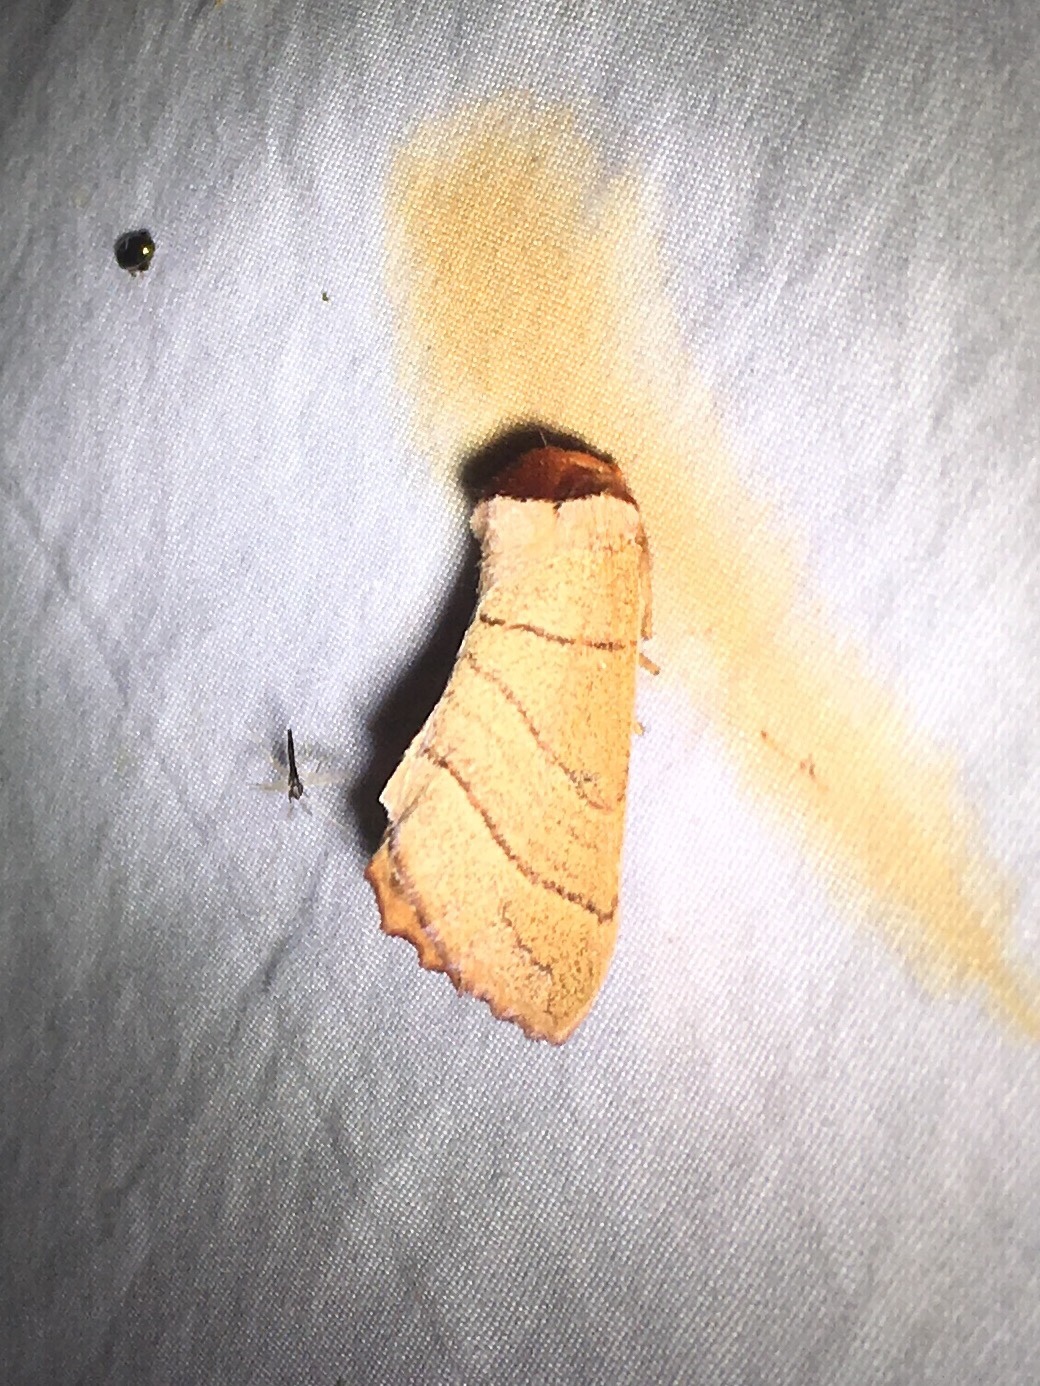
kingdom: Animalia
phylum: Arthropoda
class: Insecta
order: Lepidoptera
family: Notodontidae
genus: Datana
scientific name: Datana ministra
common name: Yellow-necked caterpillar moth
